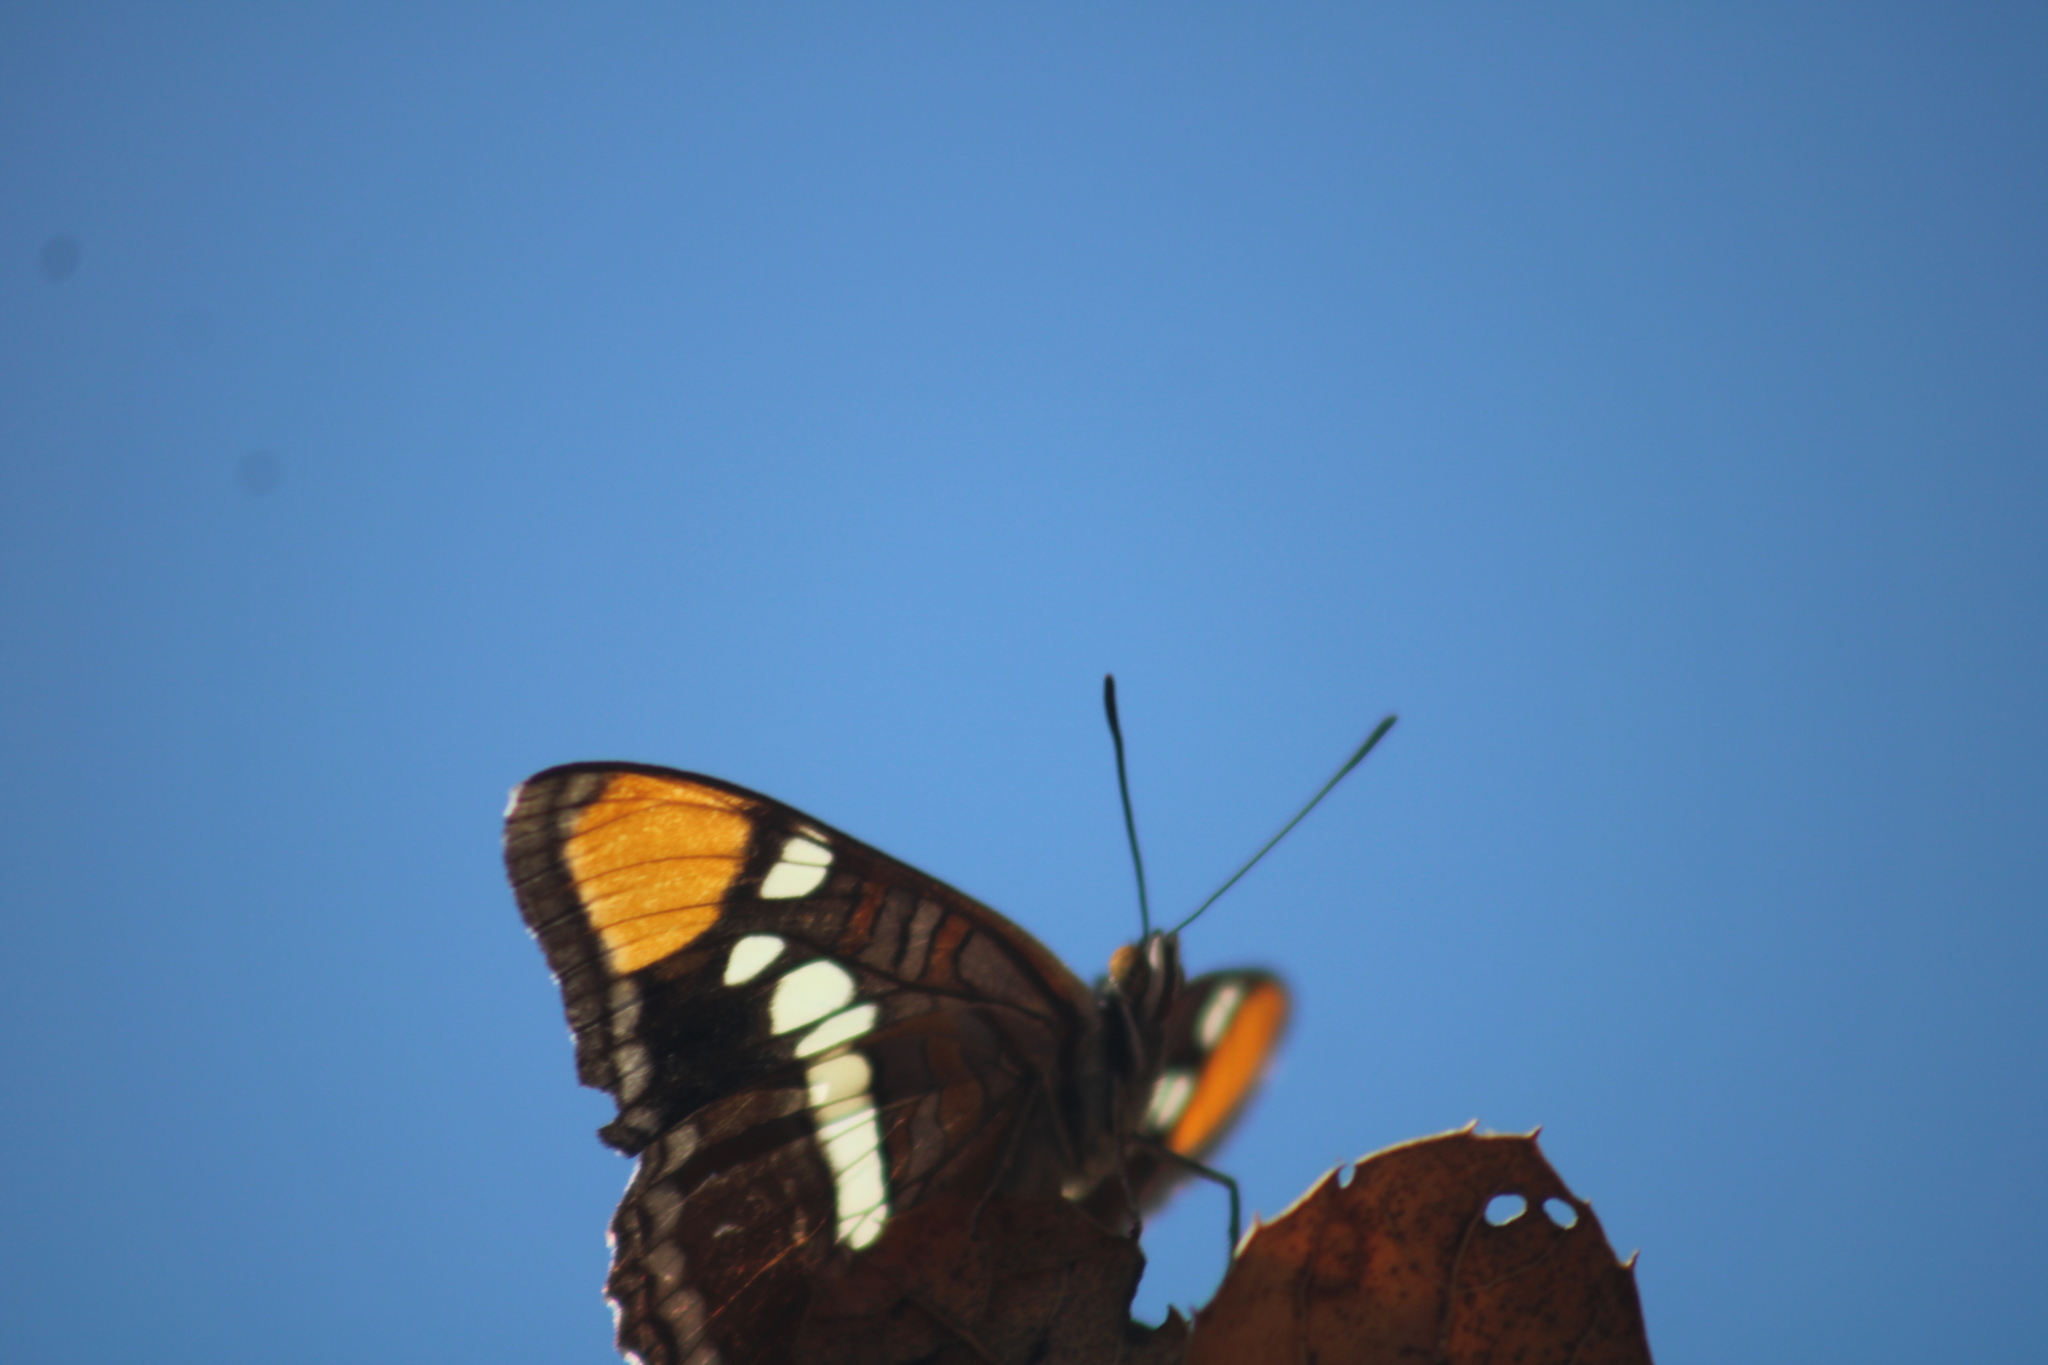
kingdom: Animalia
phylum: Arthropoda
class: Insecta
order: Lepidoptera
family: Nymphalidae
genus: Limenitis
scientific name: Limenitis bredowii
